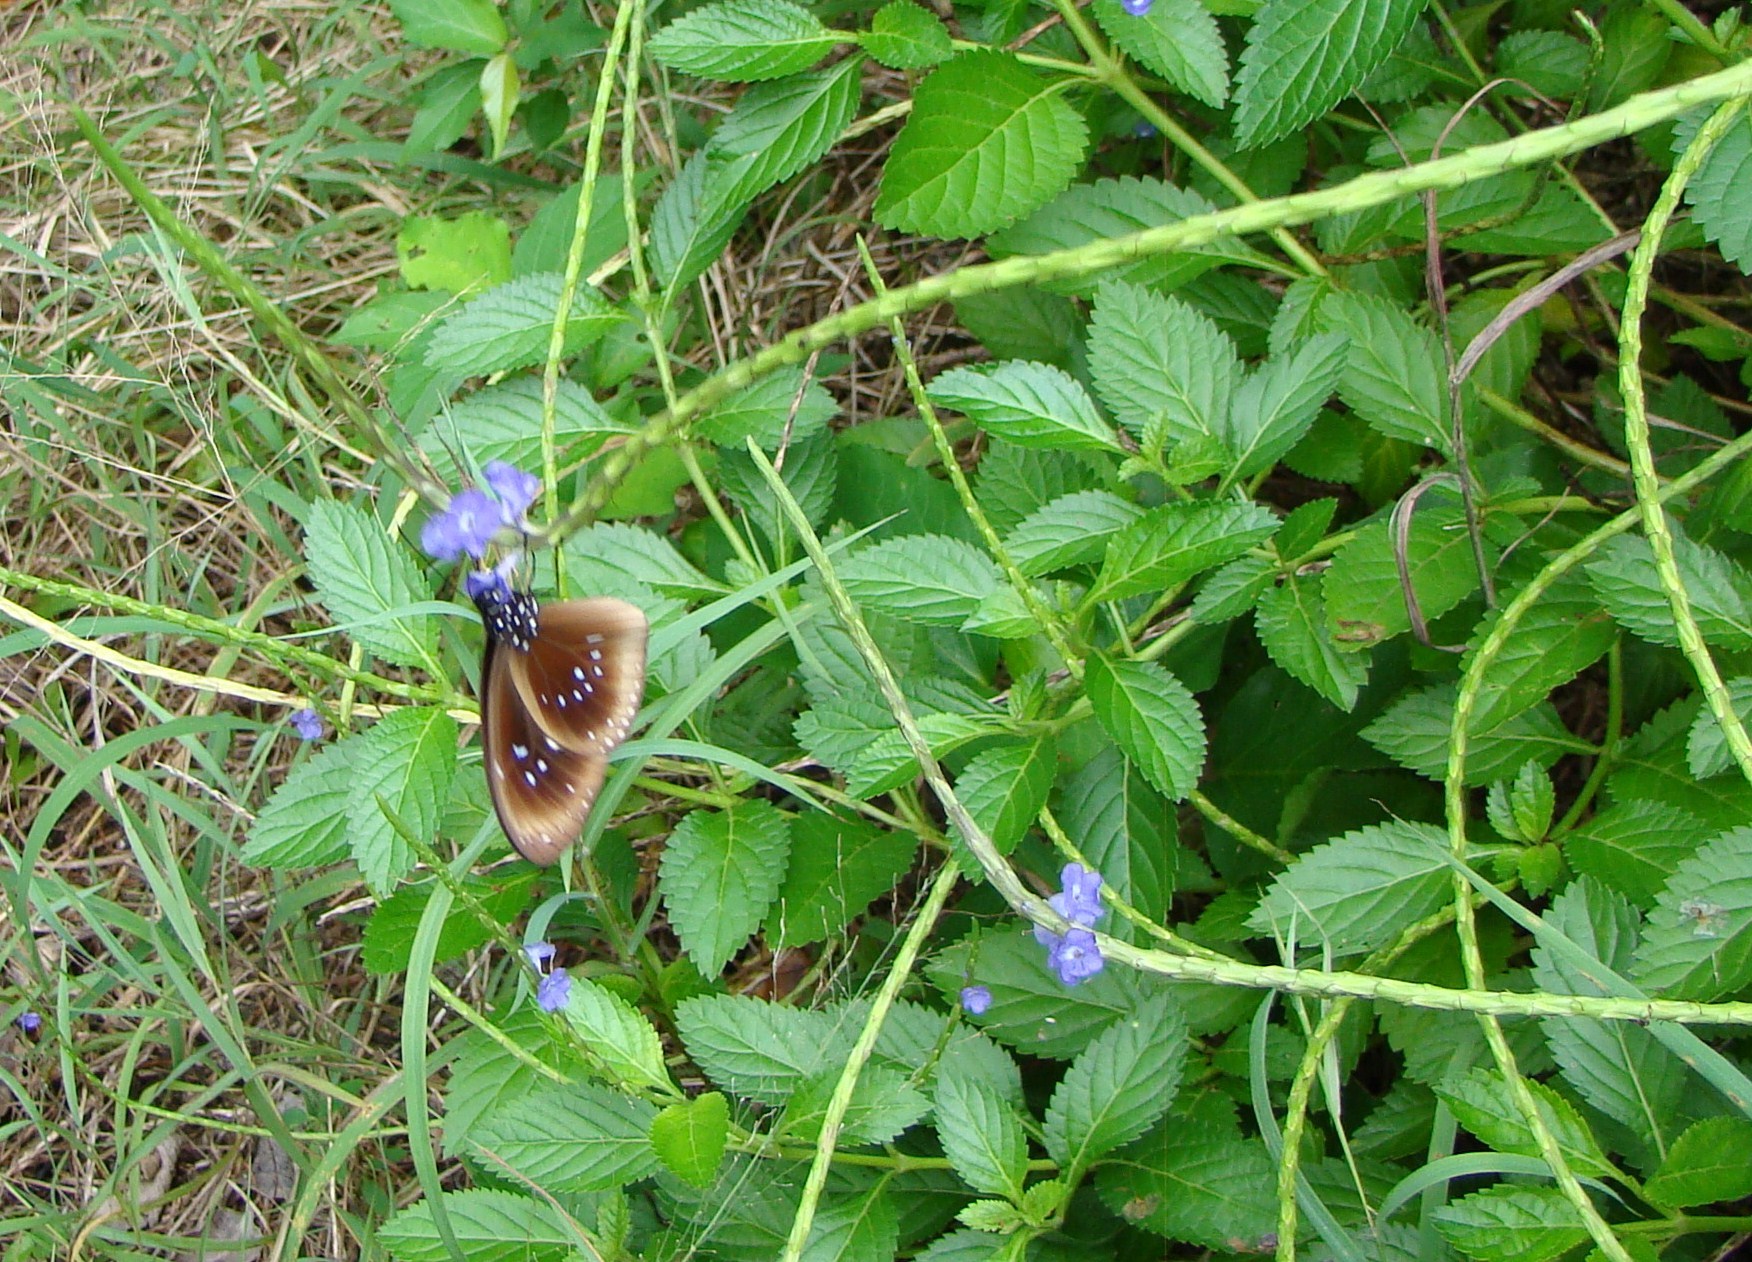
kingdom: Animalia
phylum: Arthropoda
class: Insecta
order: Lepidoptera
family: Nymphalidae
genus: Euploea
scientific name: Euploea boisduvalii
